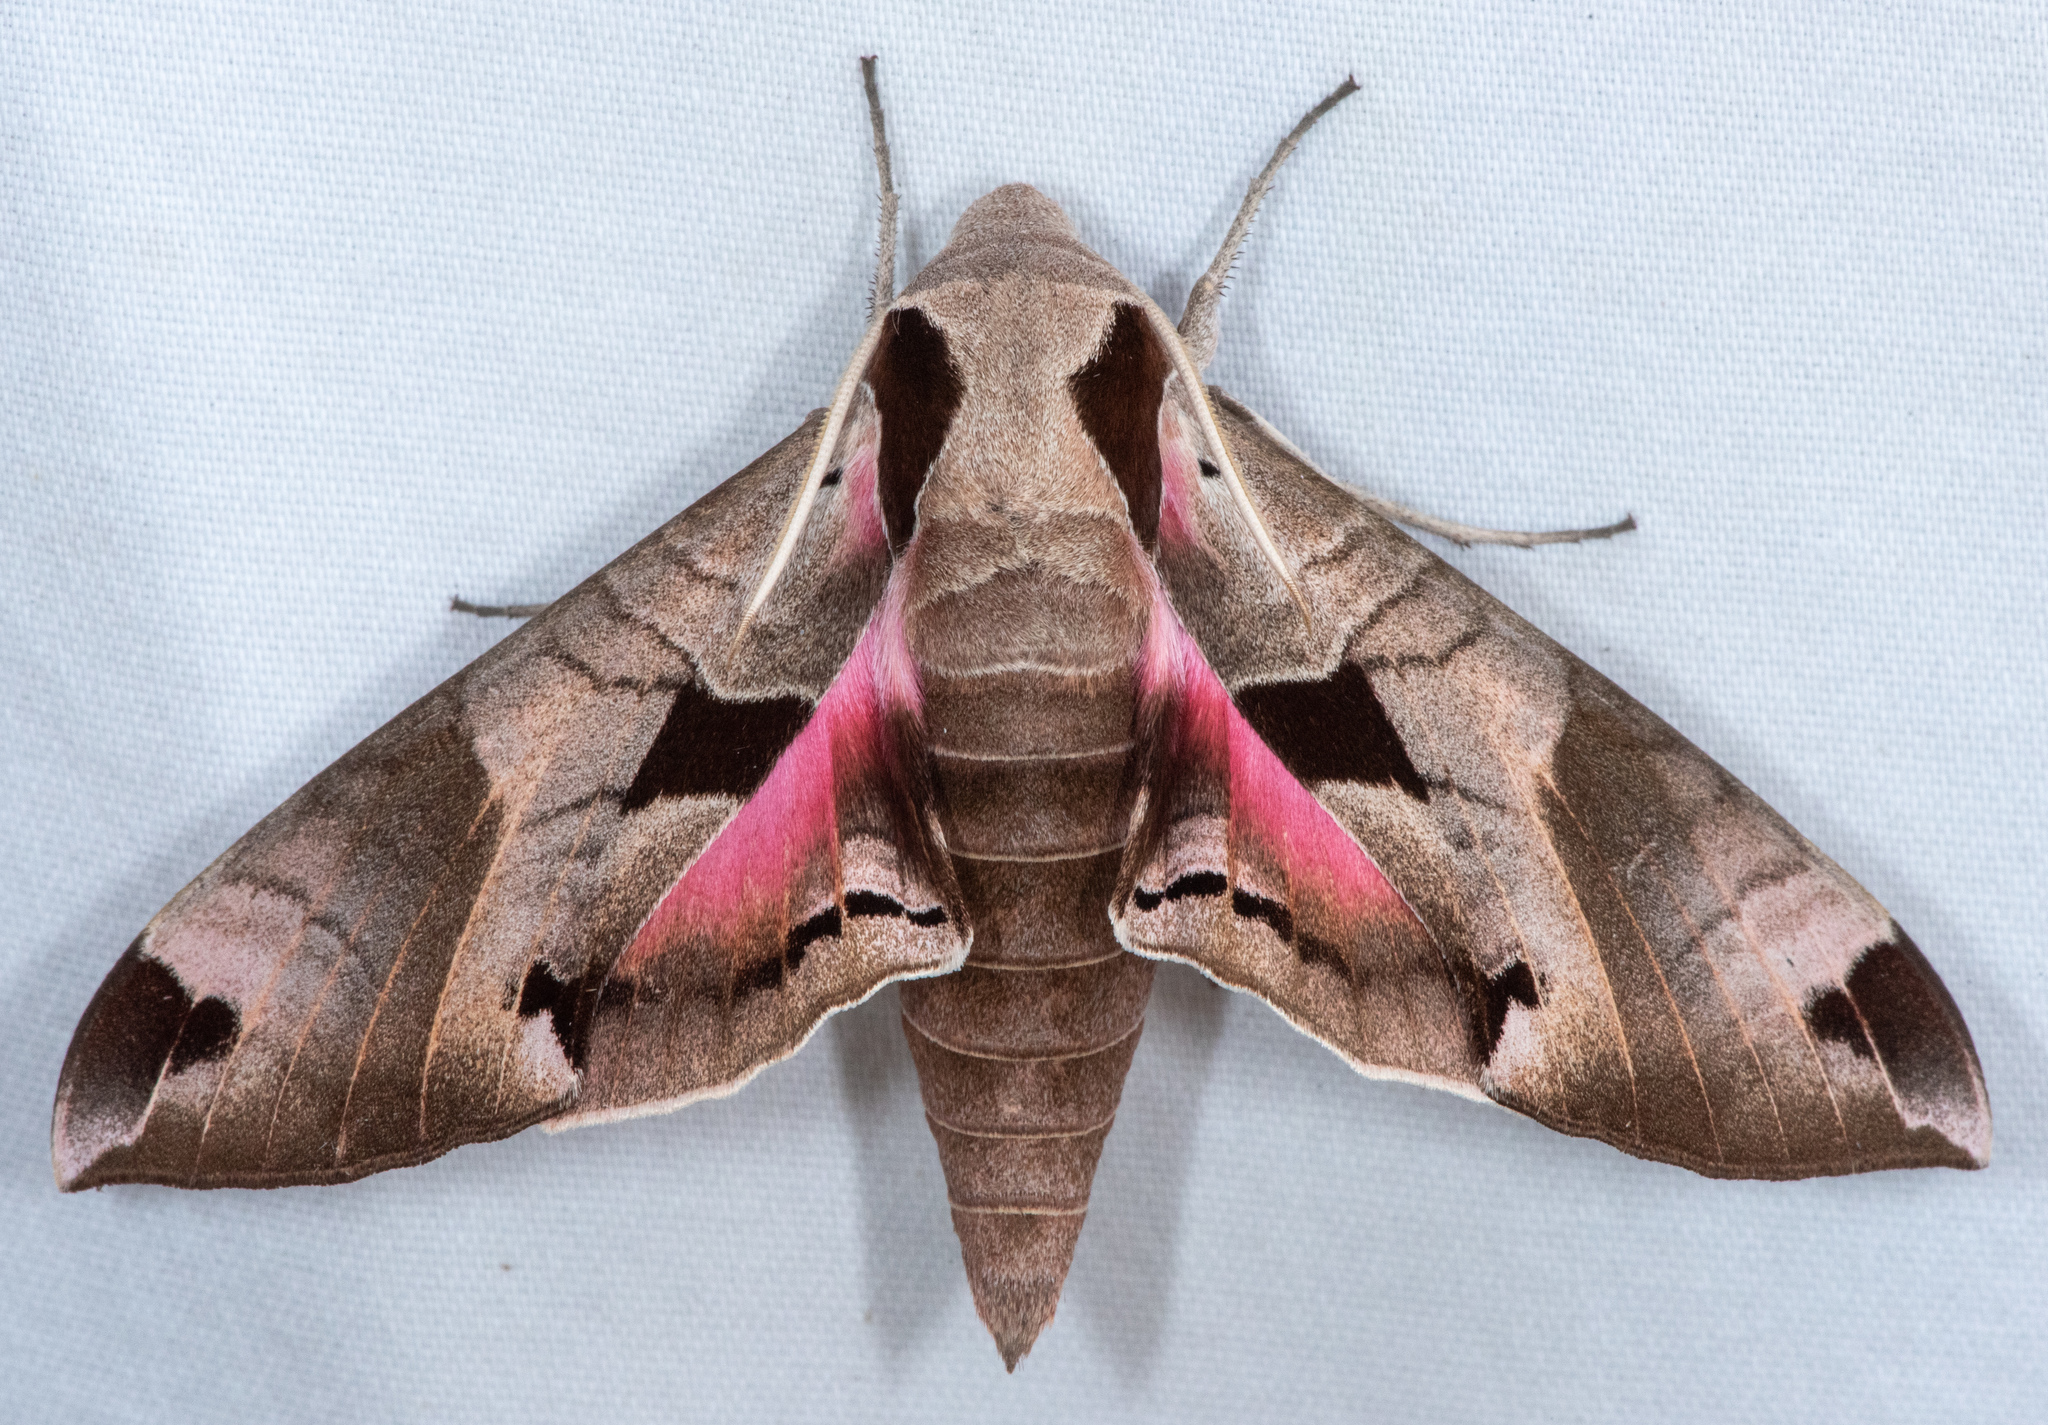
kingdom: Animalia
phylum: Arthropoda
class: Insecta
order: Lepidoptera
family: Sphingidae
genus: Eumorpha
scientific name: Eumorpha achemon
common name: Achemon sphinx
